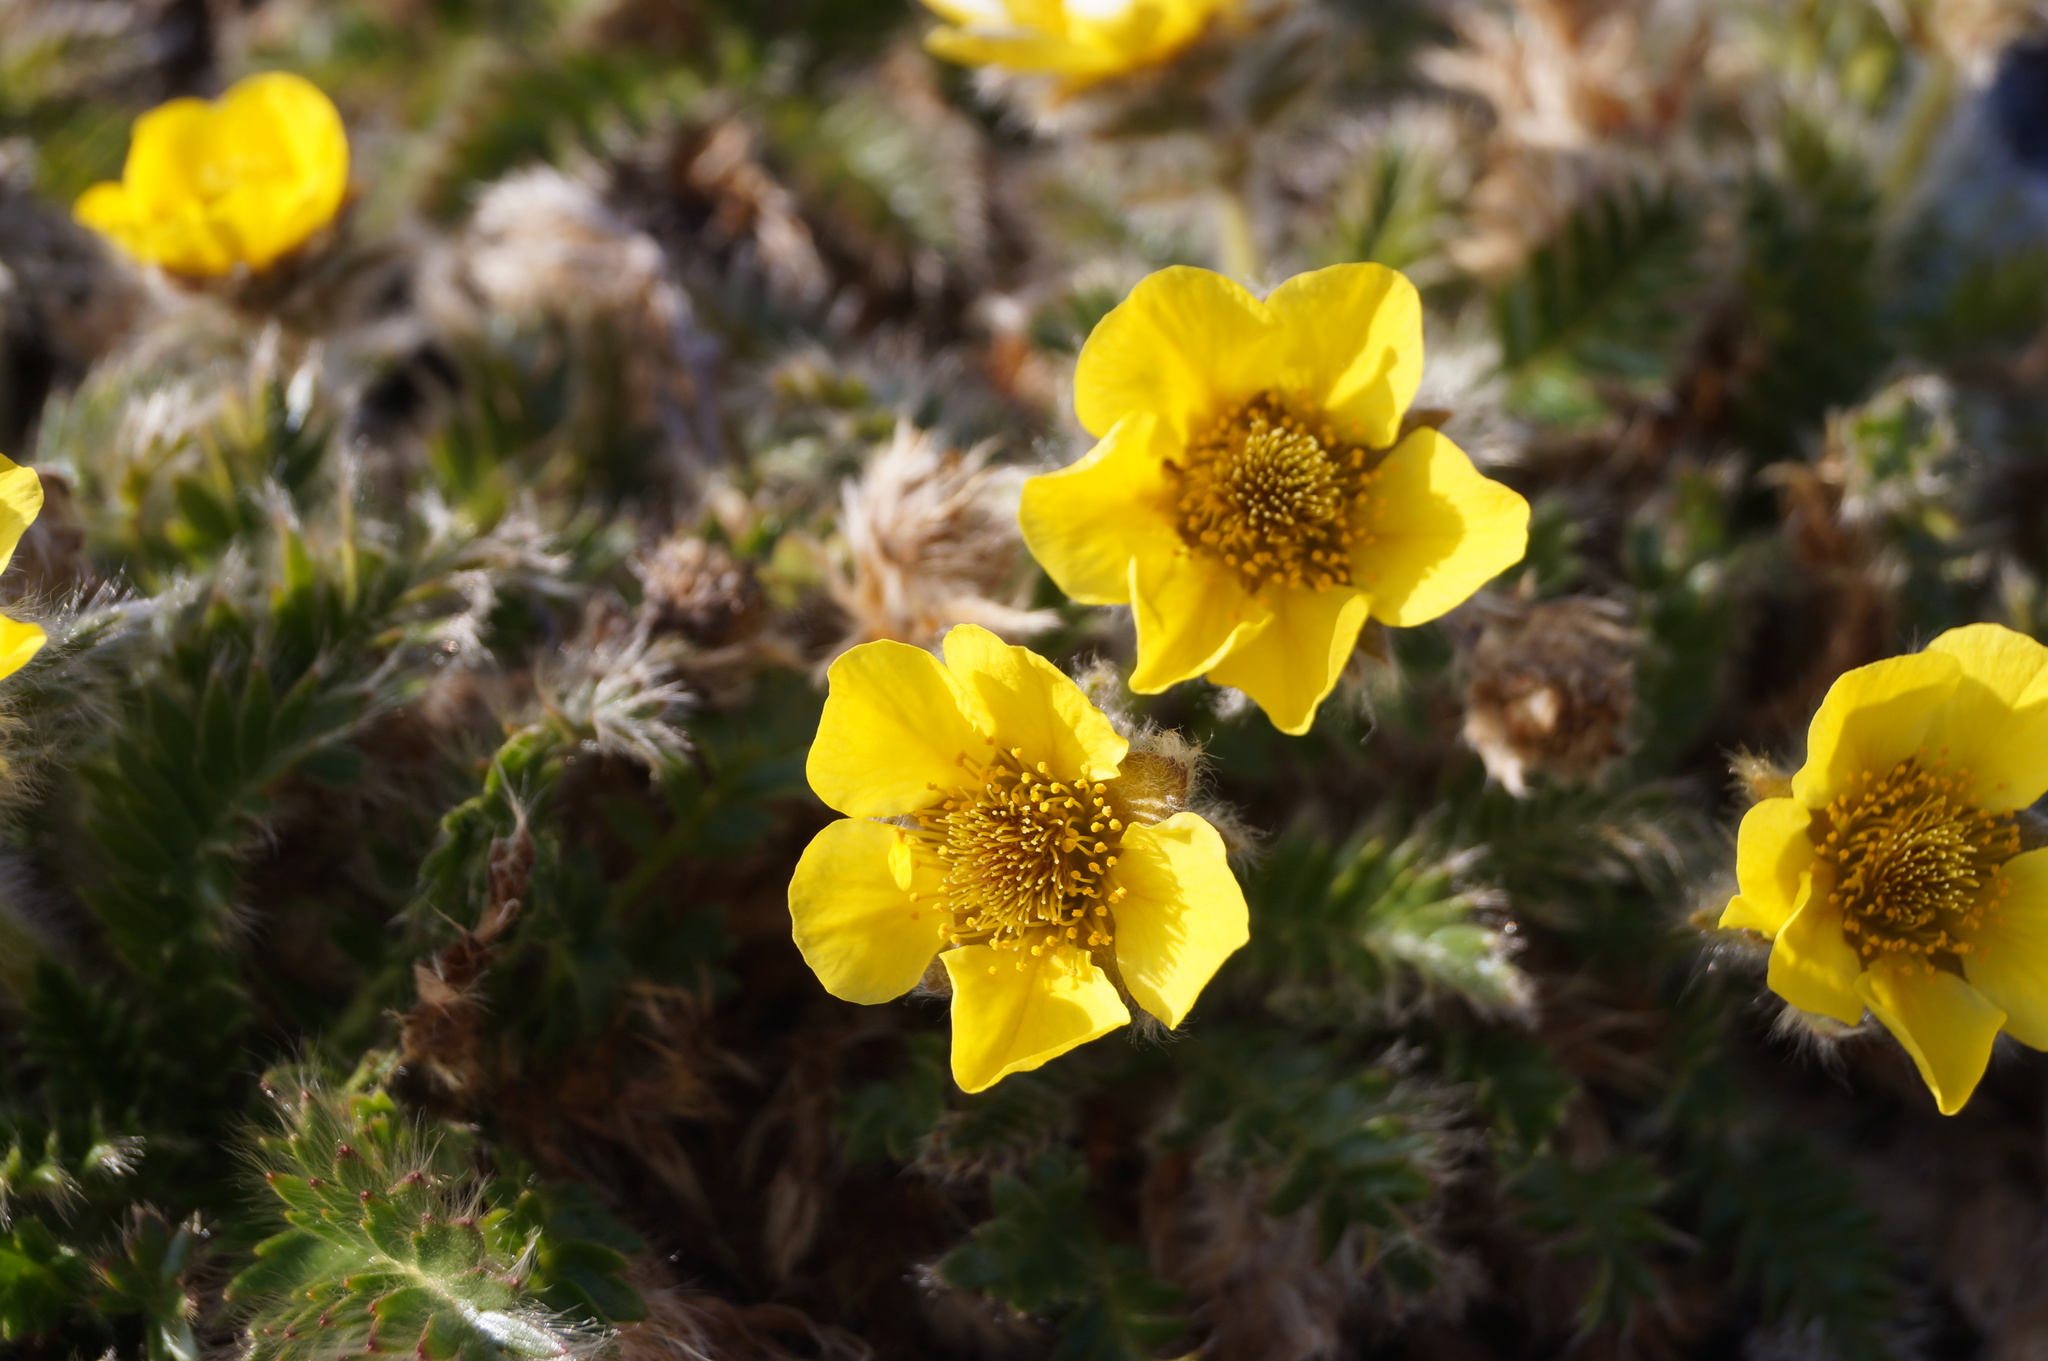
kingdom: Plantae
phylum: Tracheophyta
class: Magnoliopsida
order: Rosales
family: Rosaceae
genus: Geum
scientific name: Geum glaciale
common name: Glacier avens
